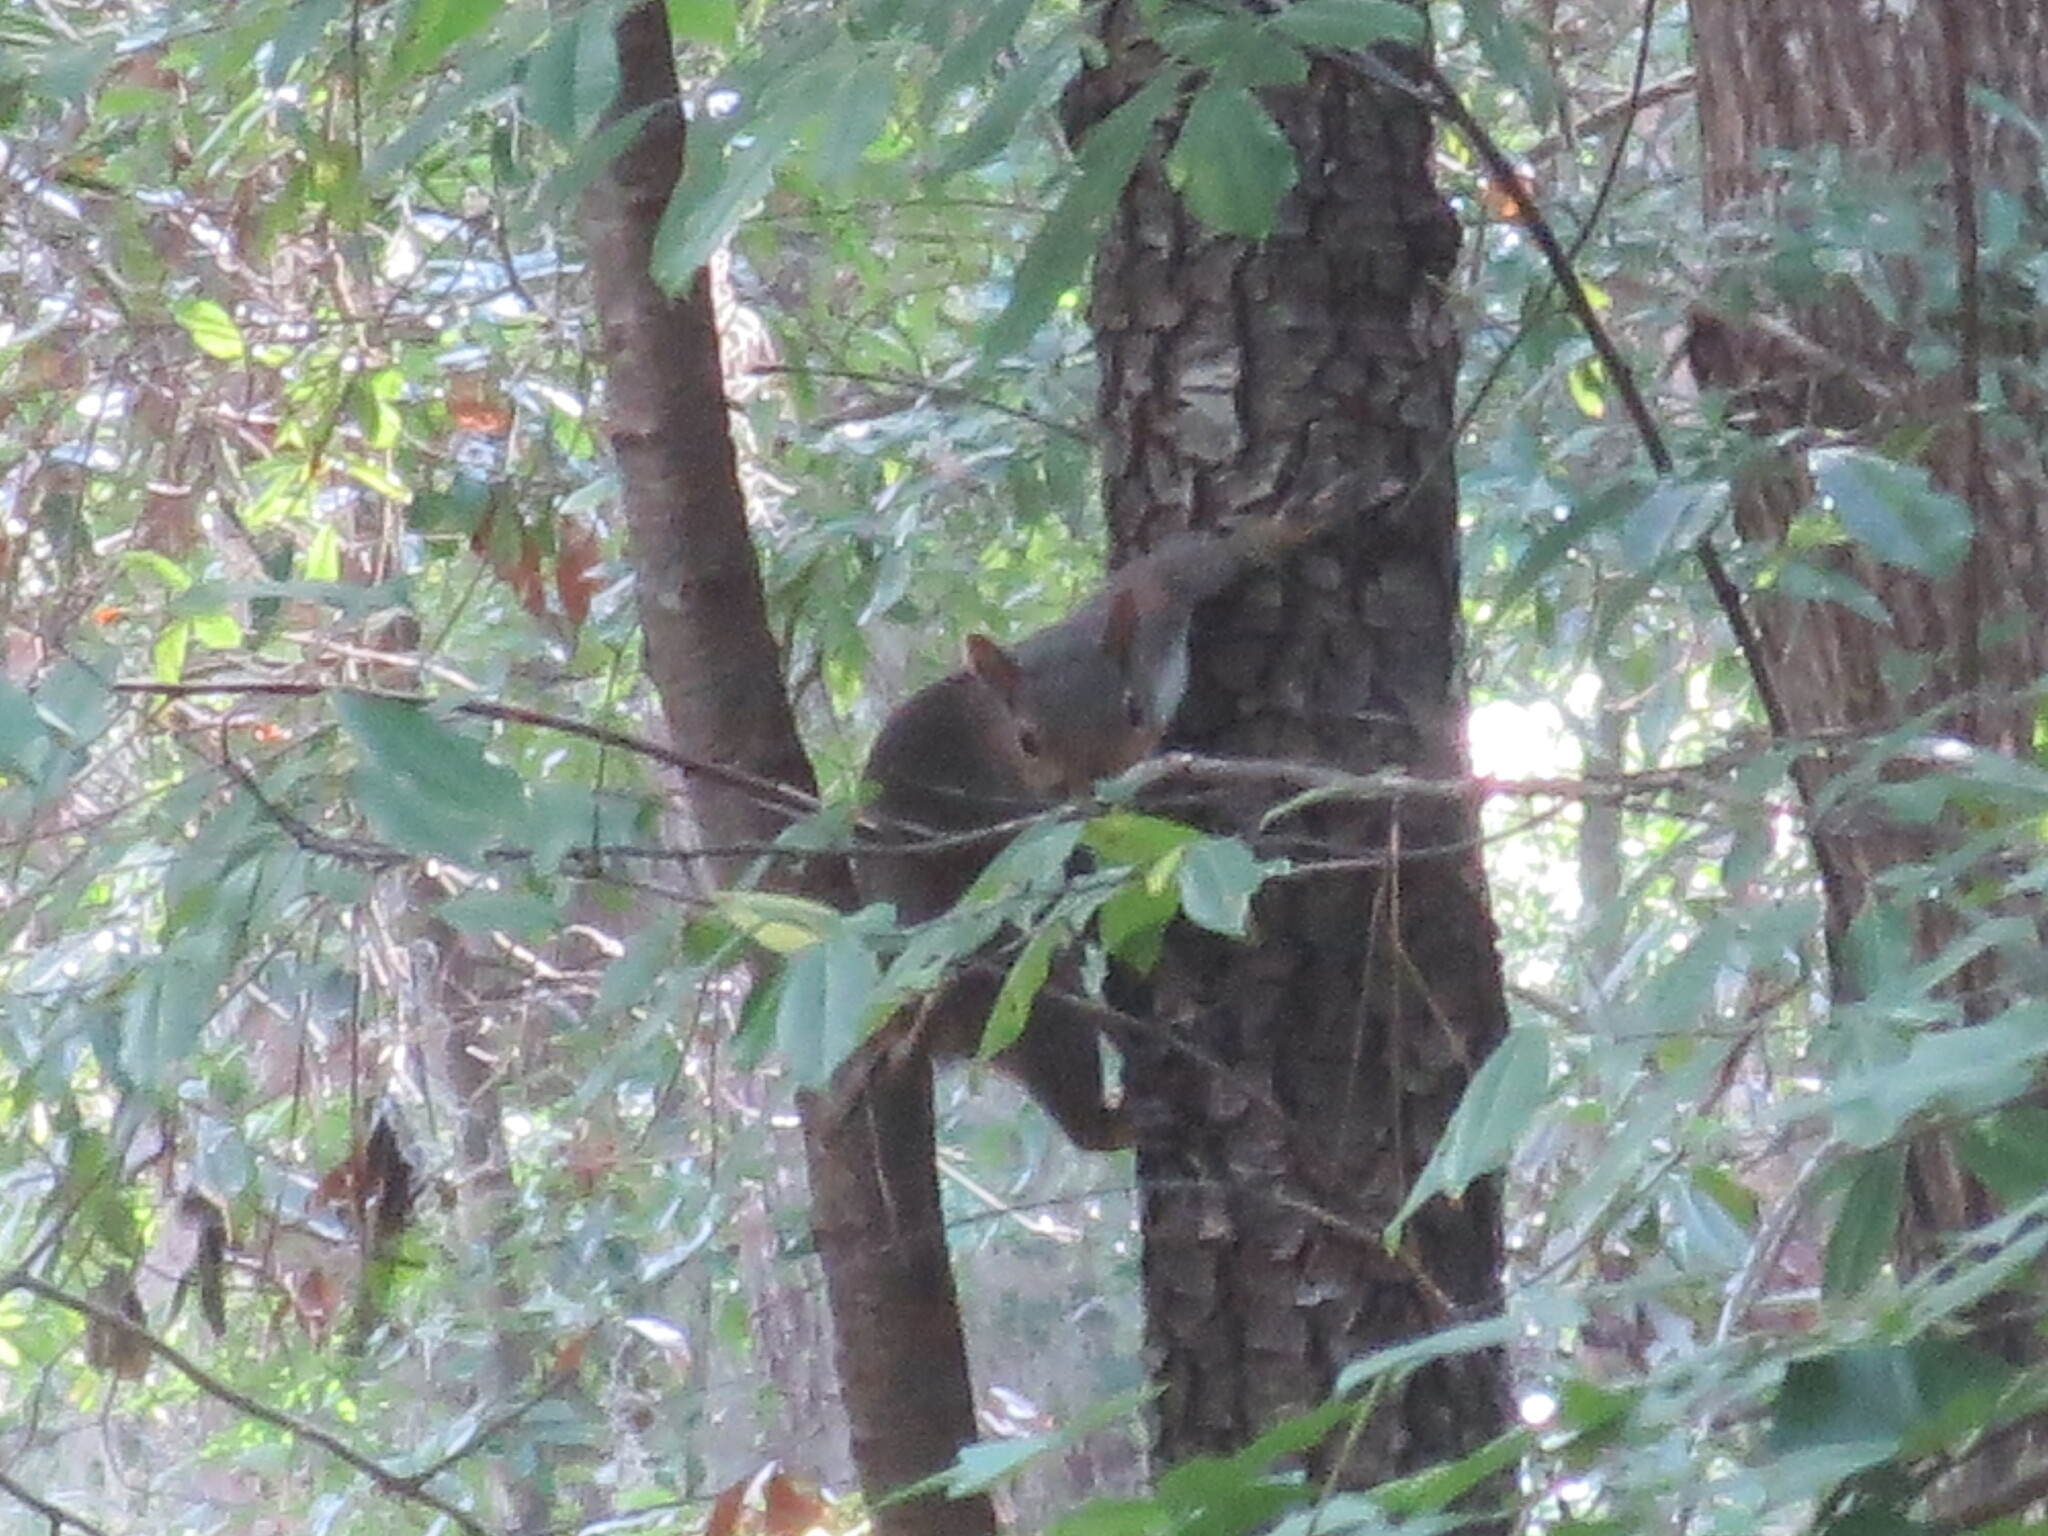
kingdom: Animalia
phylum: Chordata
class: Mammalia
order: Rodentia
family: Sciuridae
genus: Sciurus
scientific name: Sciurus carolinensis
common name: Eastern gray squirrel
